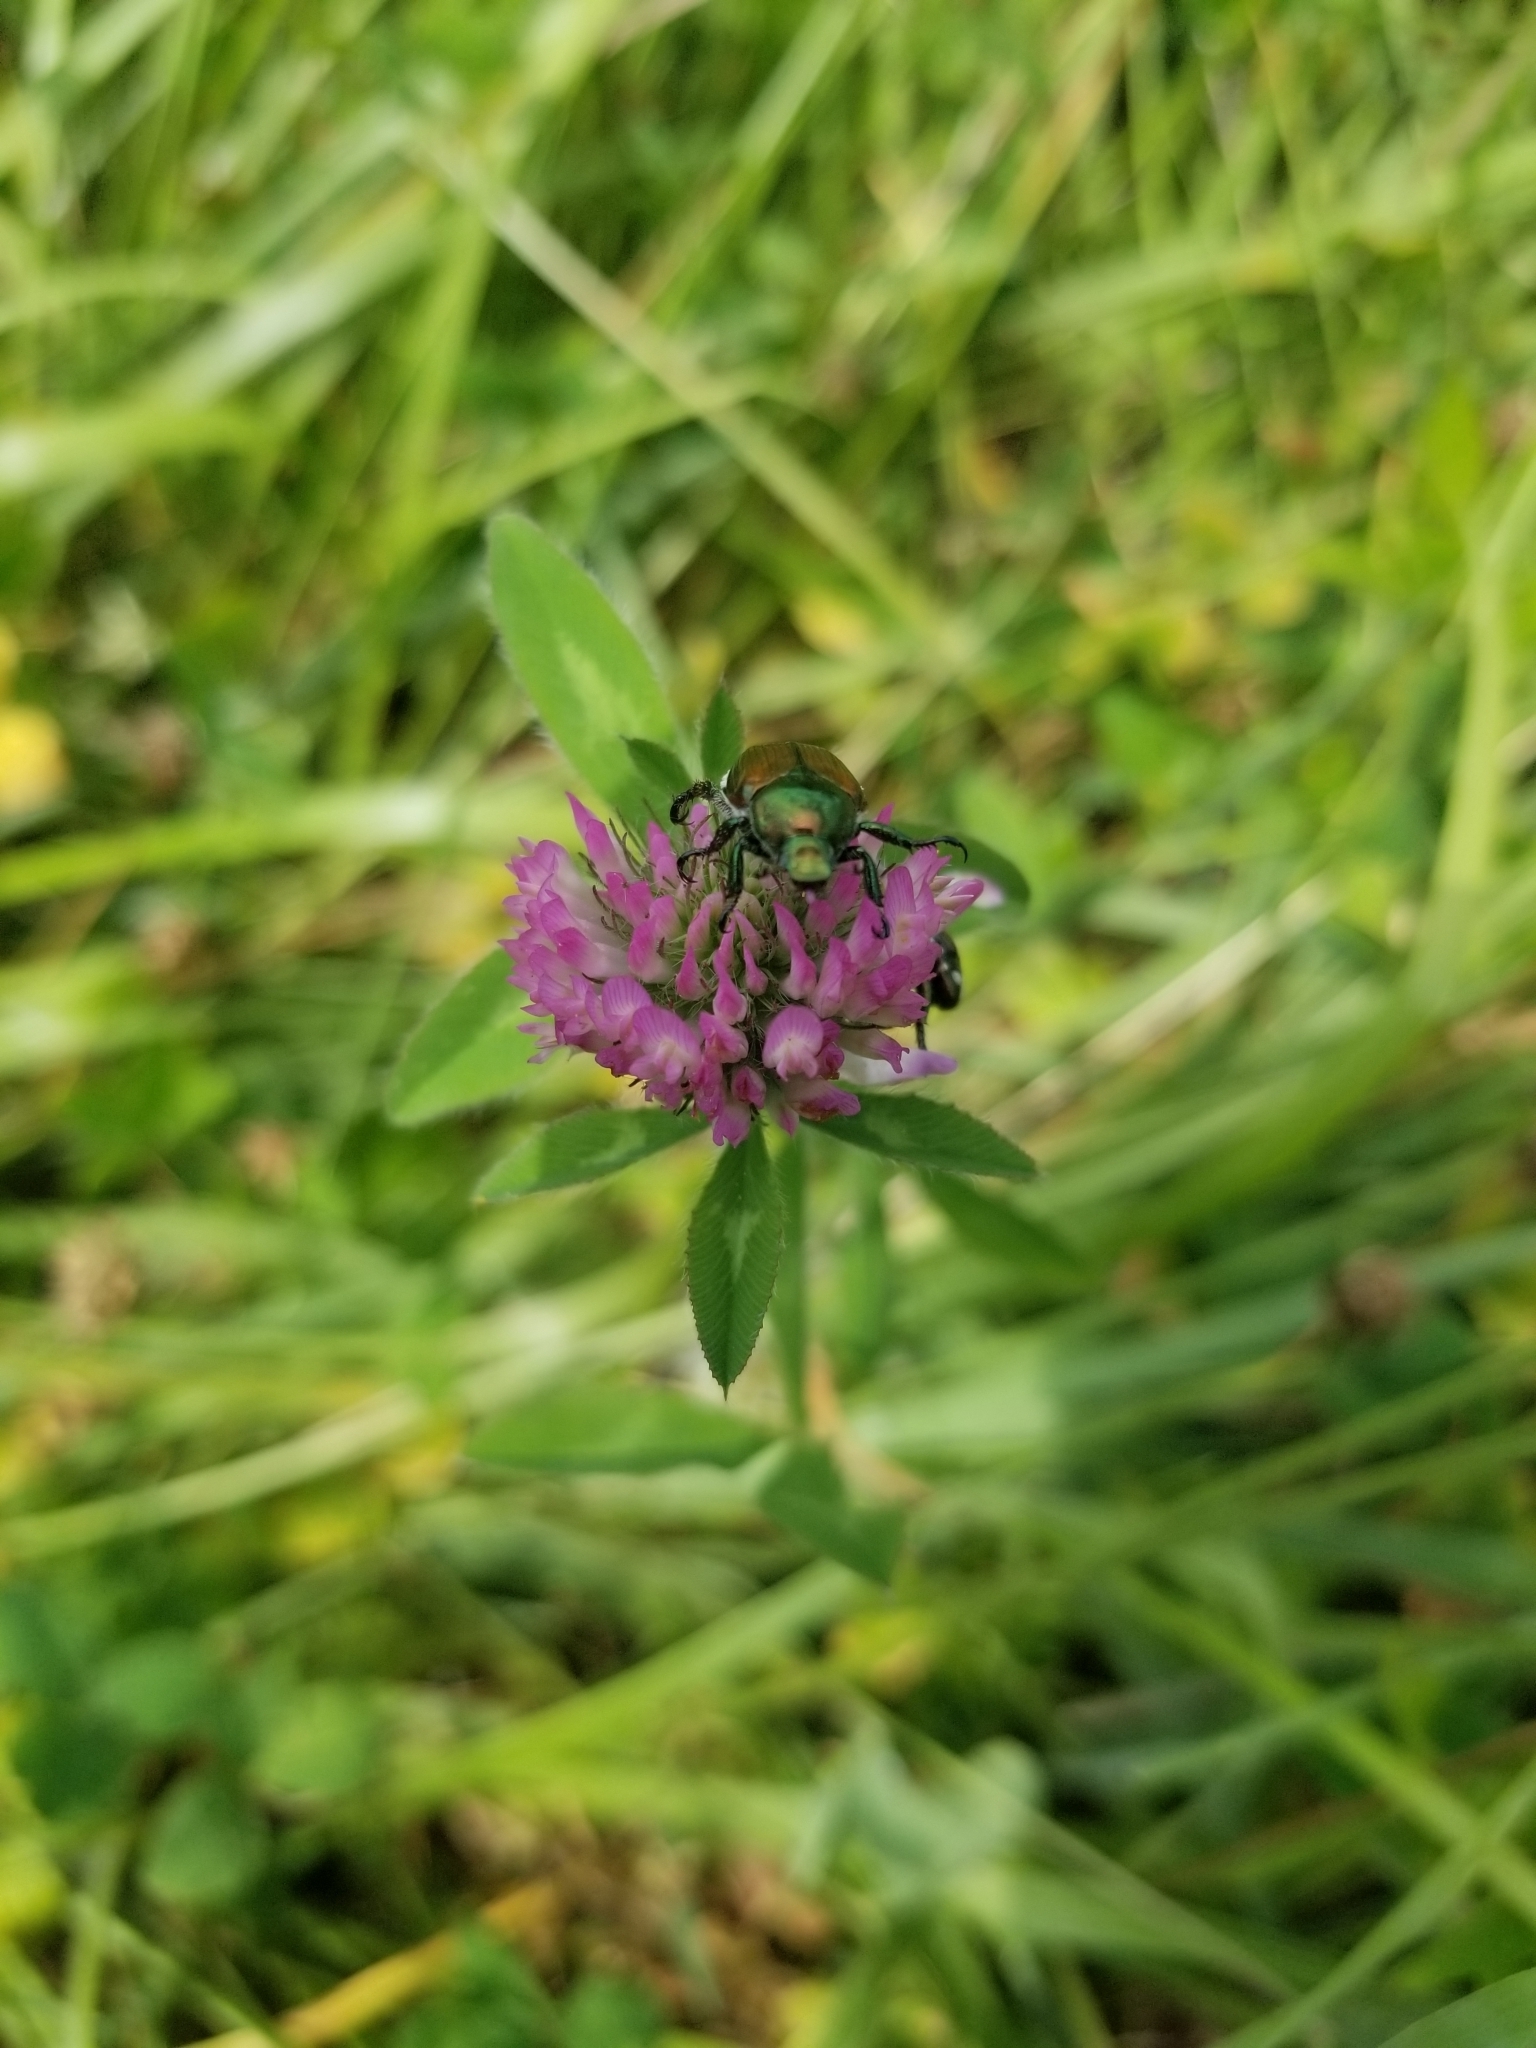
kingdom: Animalia
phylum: Arthropoda
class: Insecta
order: Coleoptera
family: Scarabaeidae
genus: Popillia
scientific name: Popillia japonica
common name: Japanese beetle
